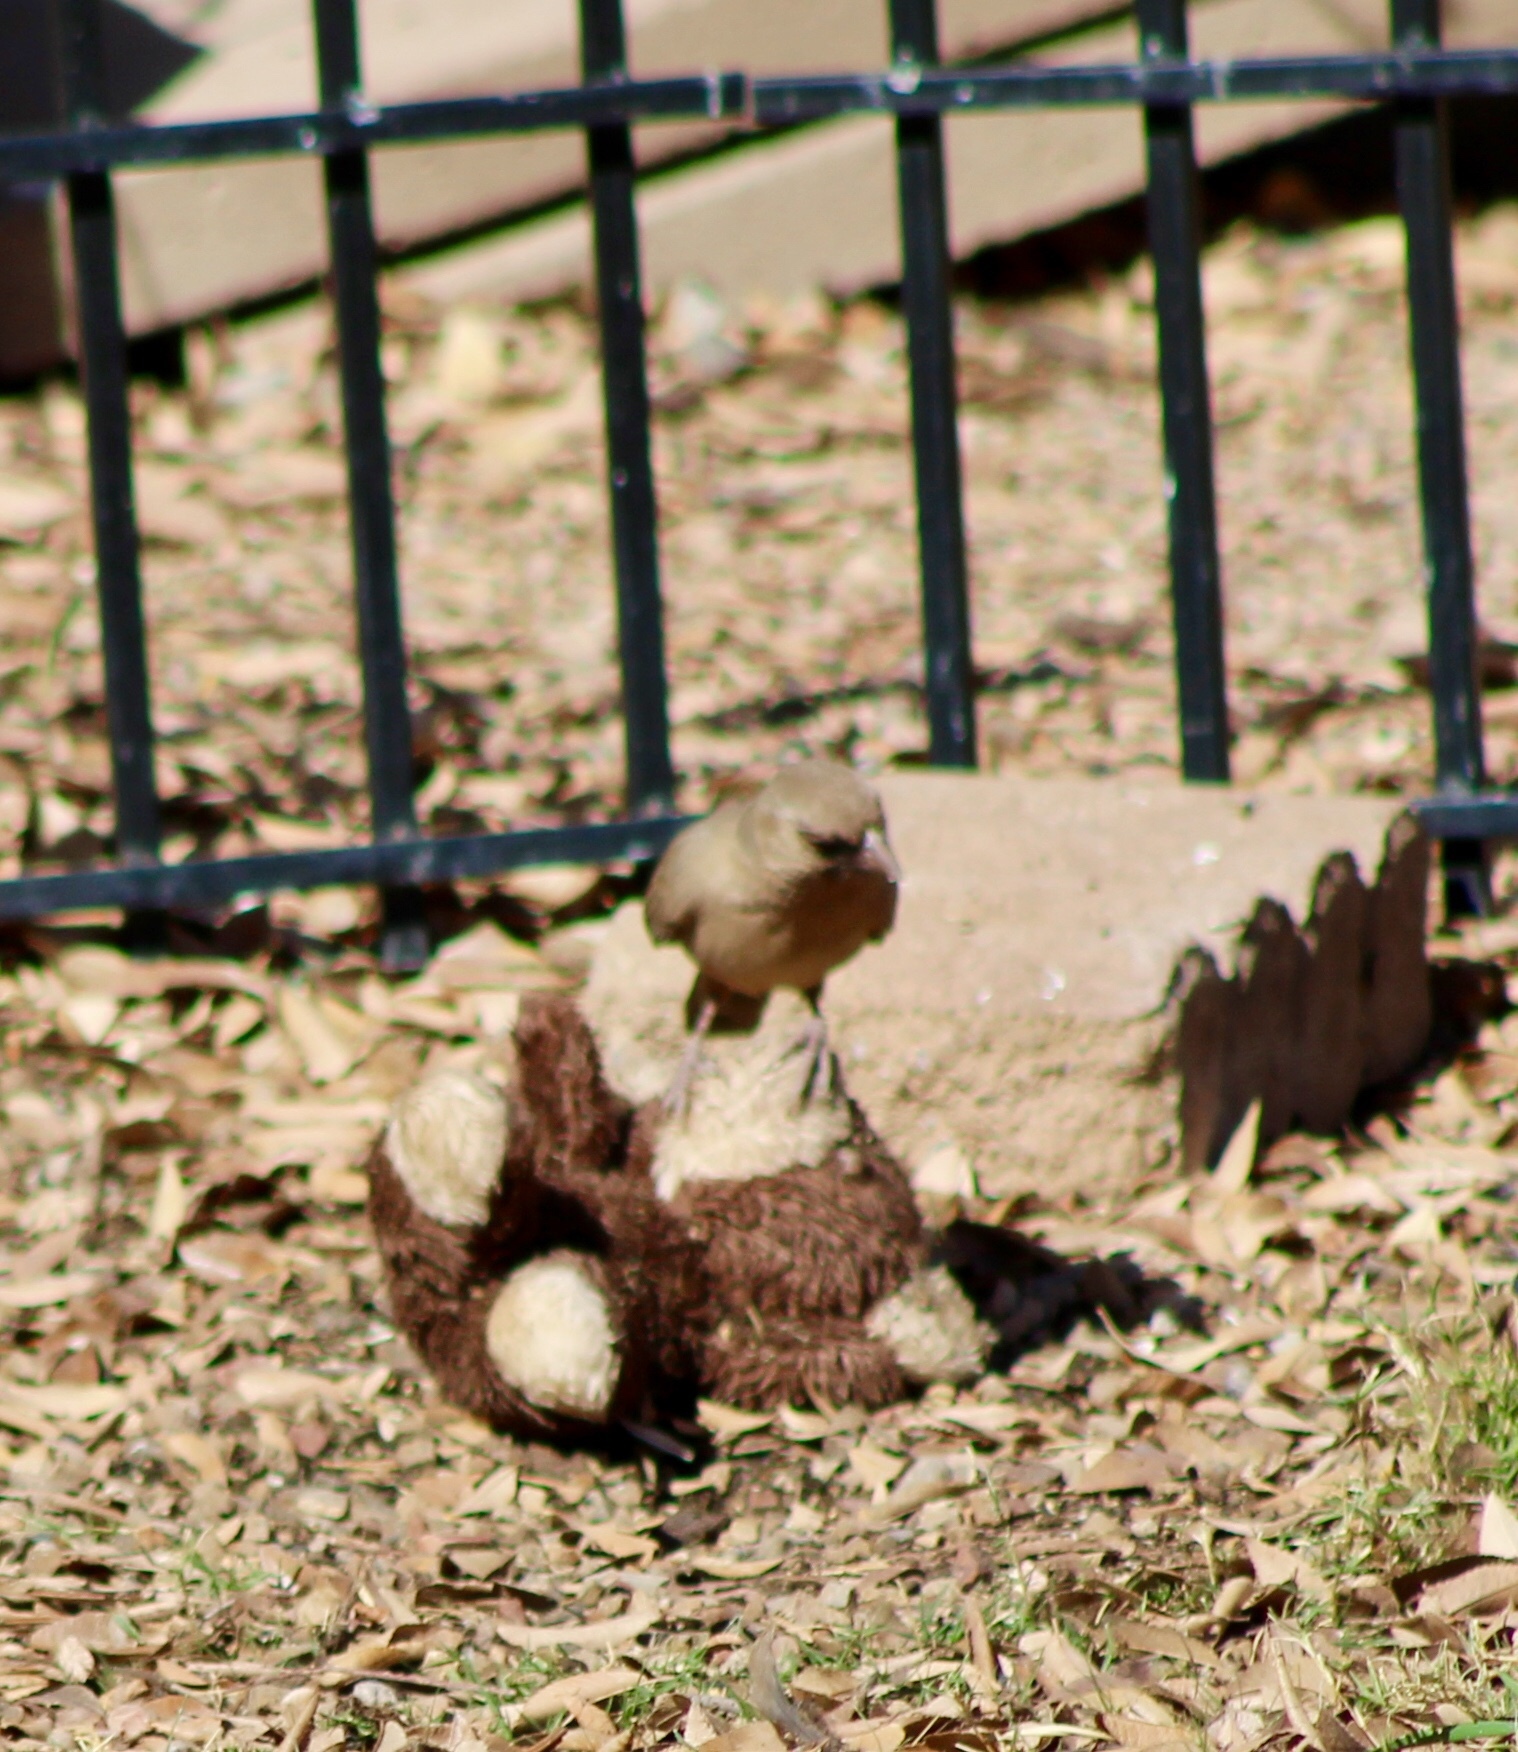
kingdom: Animalia
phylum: Chordata
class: Aves
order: Passeriformes
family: Passerellidae
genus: Melozone
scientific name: Melozone aberti
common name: Abert's towhee
